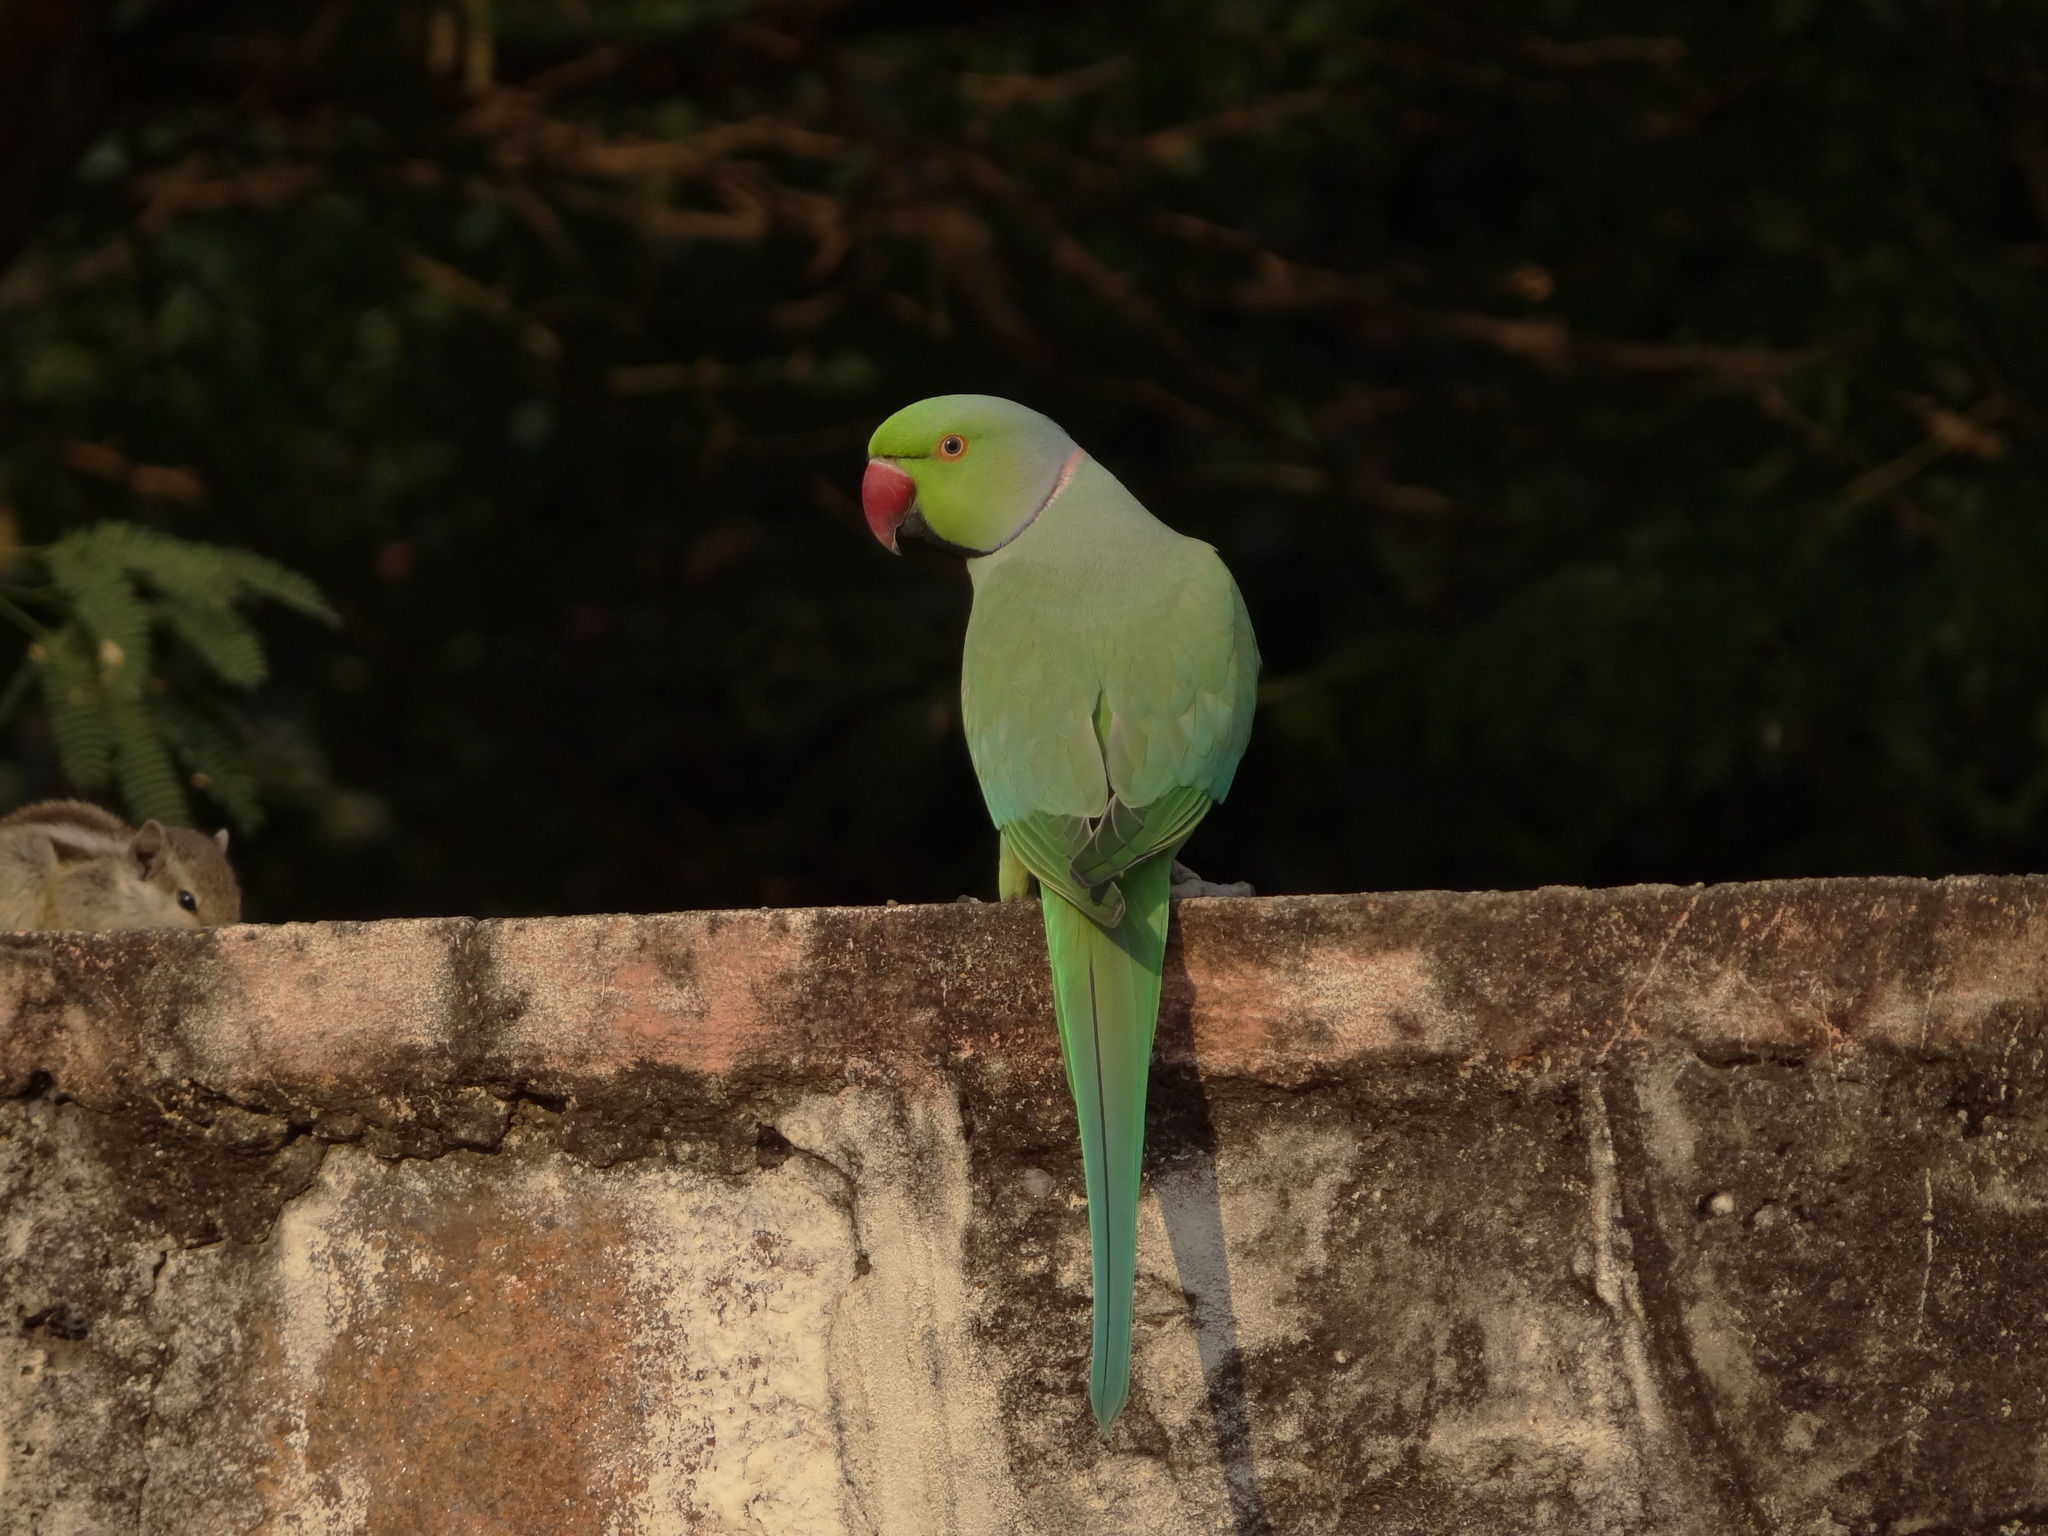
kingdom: Animalia
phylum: Chordata
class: Aves
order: Psittaciformes
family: Psittacidae
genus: Psittacula
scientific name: Psittacula krameri
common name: Rose-ringed parakeet
